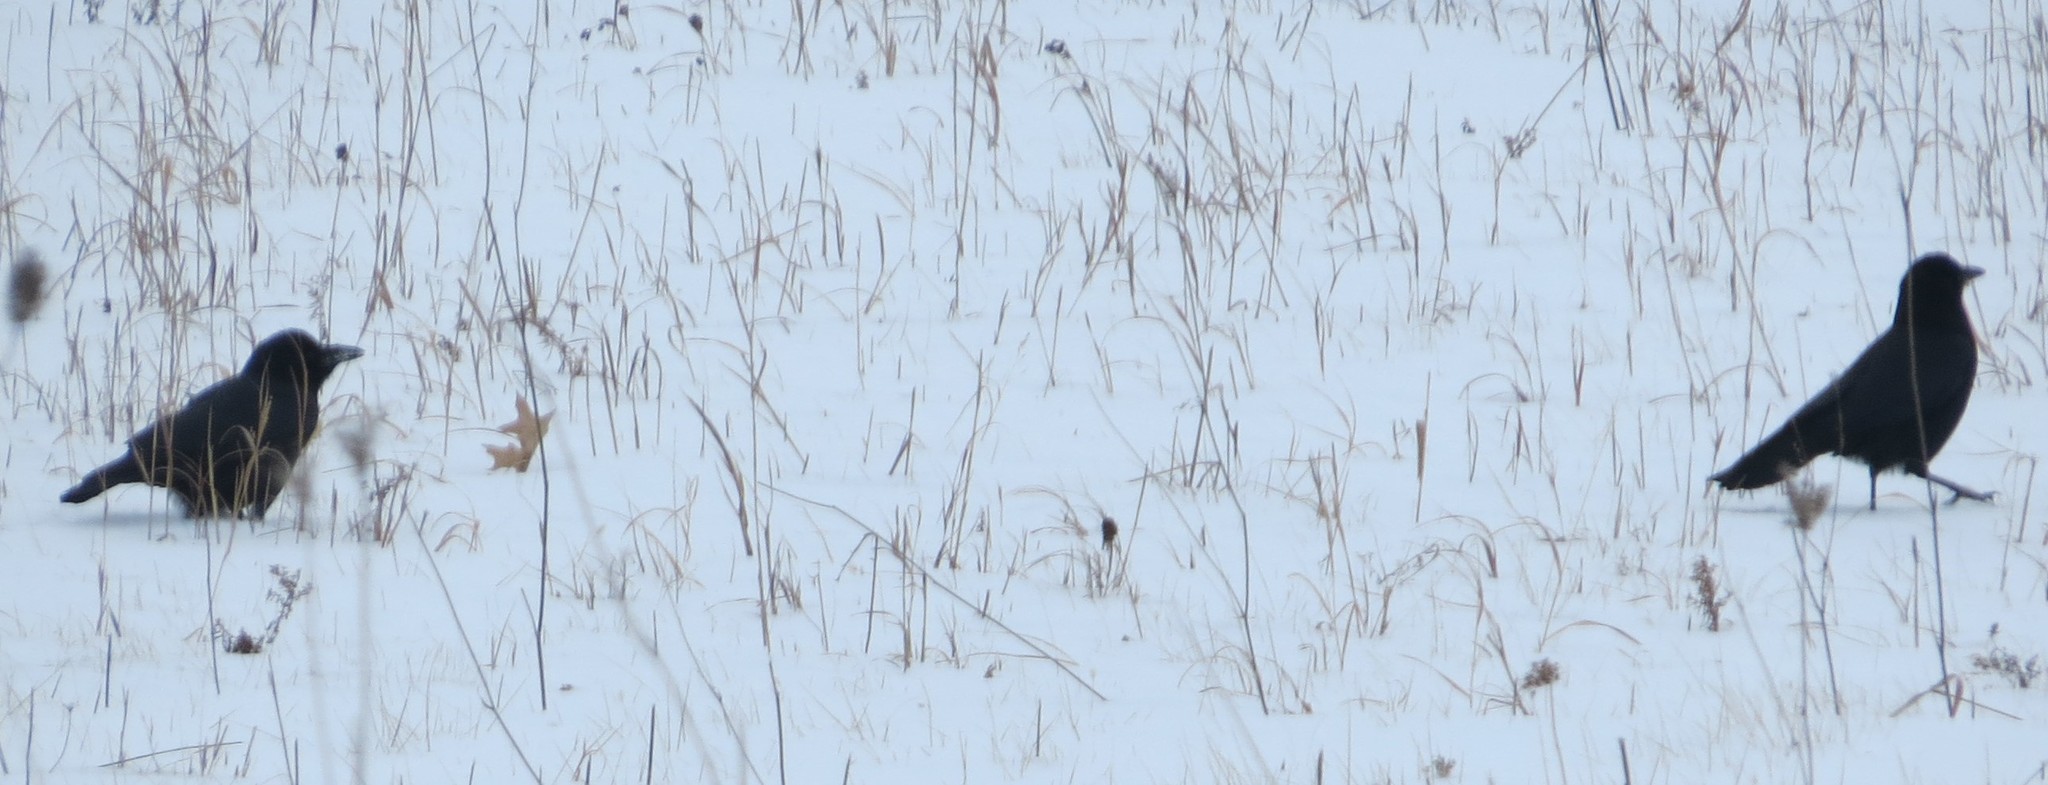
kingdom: Animalia
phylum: Chordata
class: Aves
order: Passeriformes
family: Corvidae
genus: Corvus
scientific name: Corvus brachyrhynchos
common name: American crow
